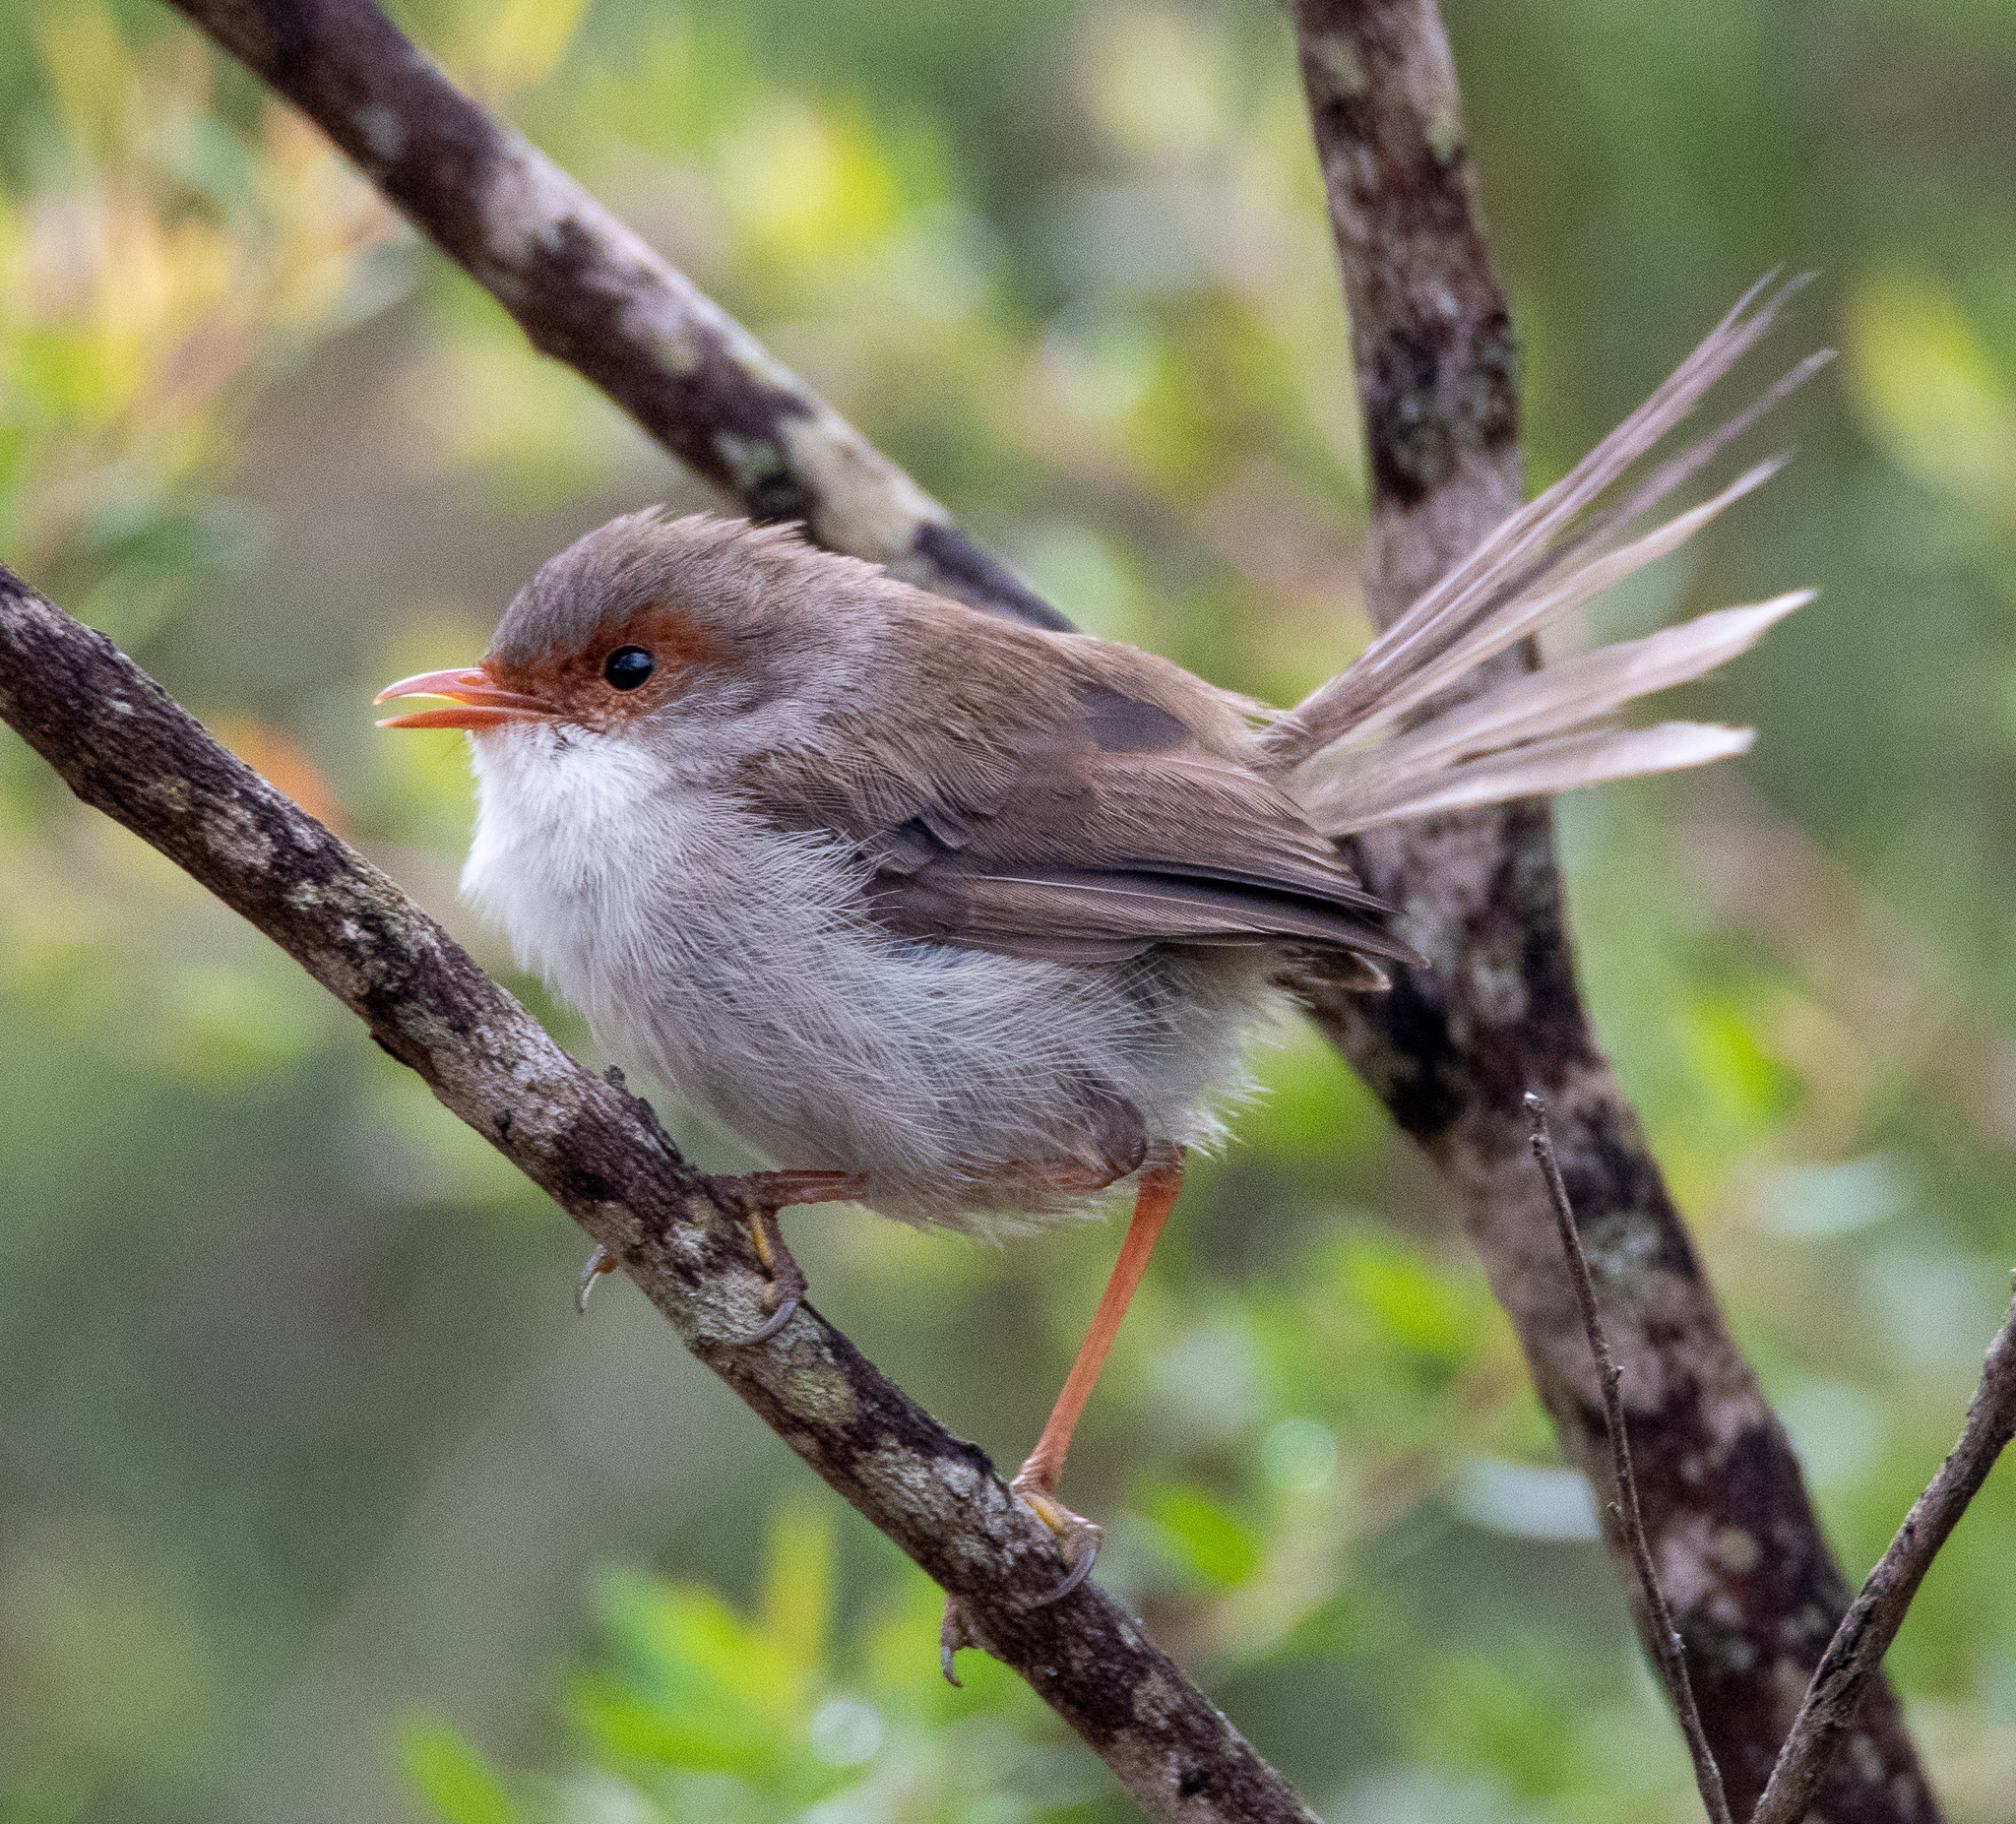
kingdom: Animalia
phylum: Chordata
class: Aves
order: Passeriformes
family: Maluridae
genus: Malurus
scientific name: Malurus cyaneus
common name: Superb fairywren
